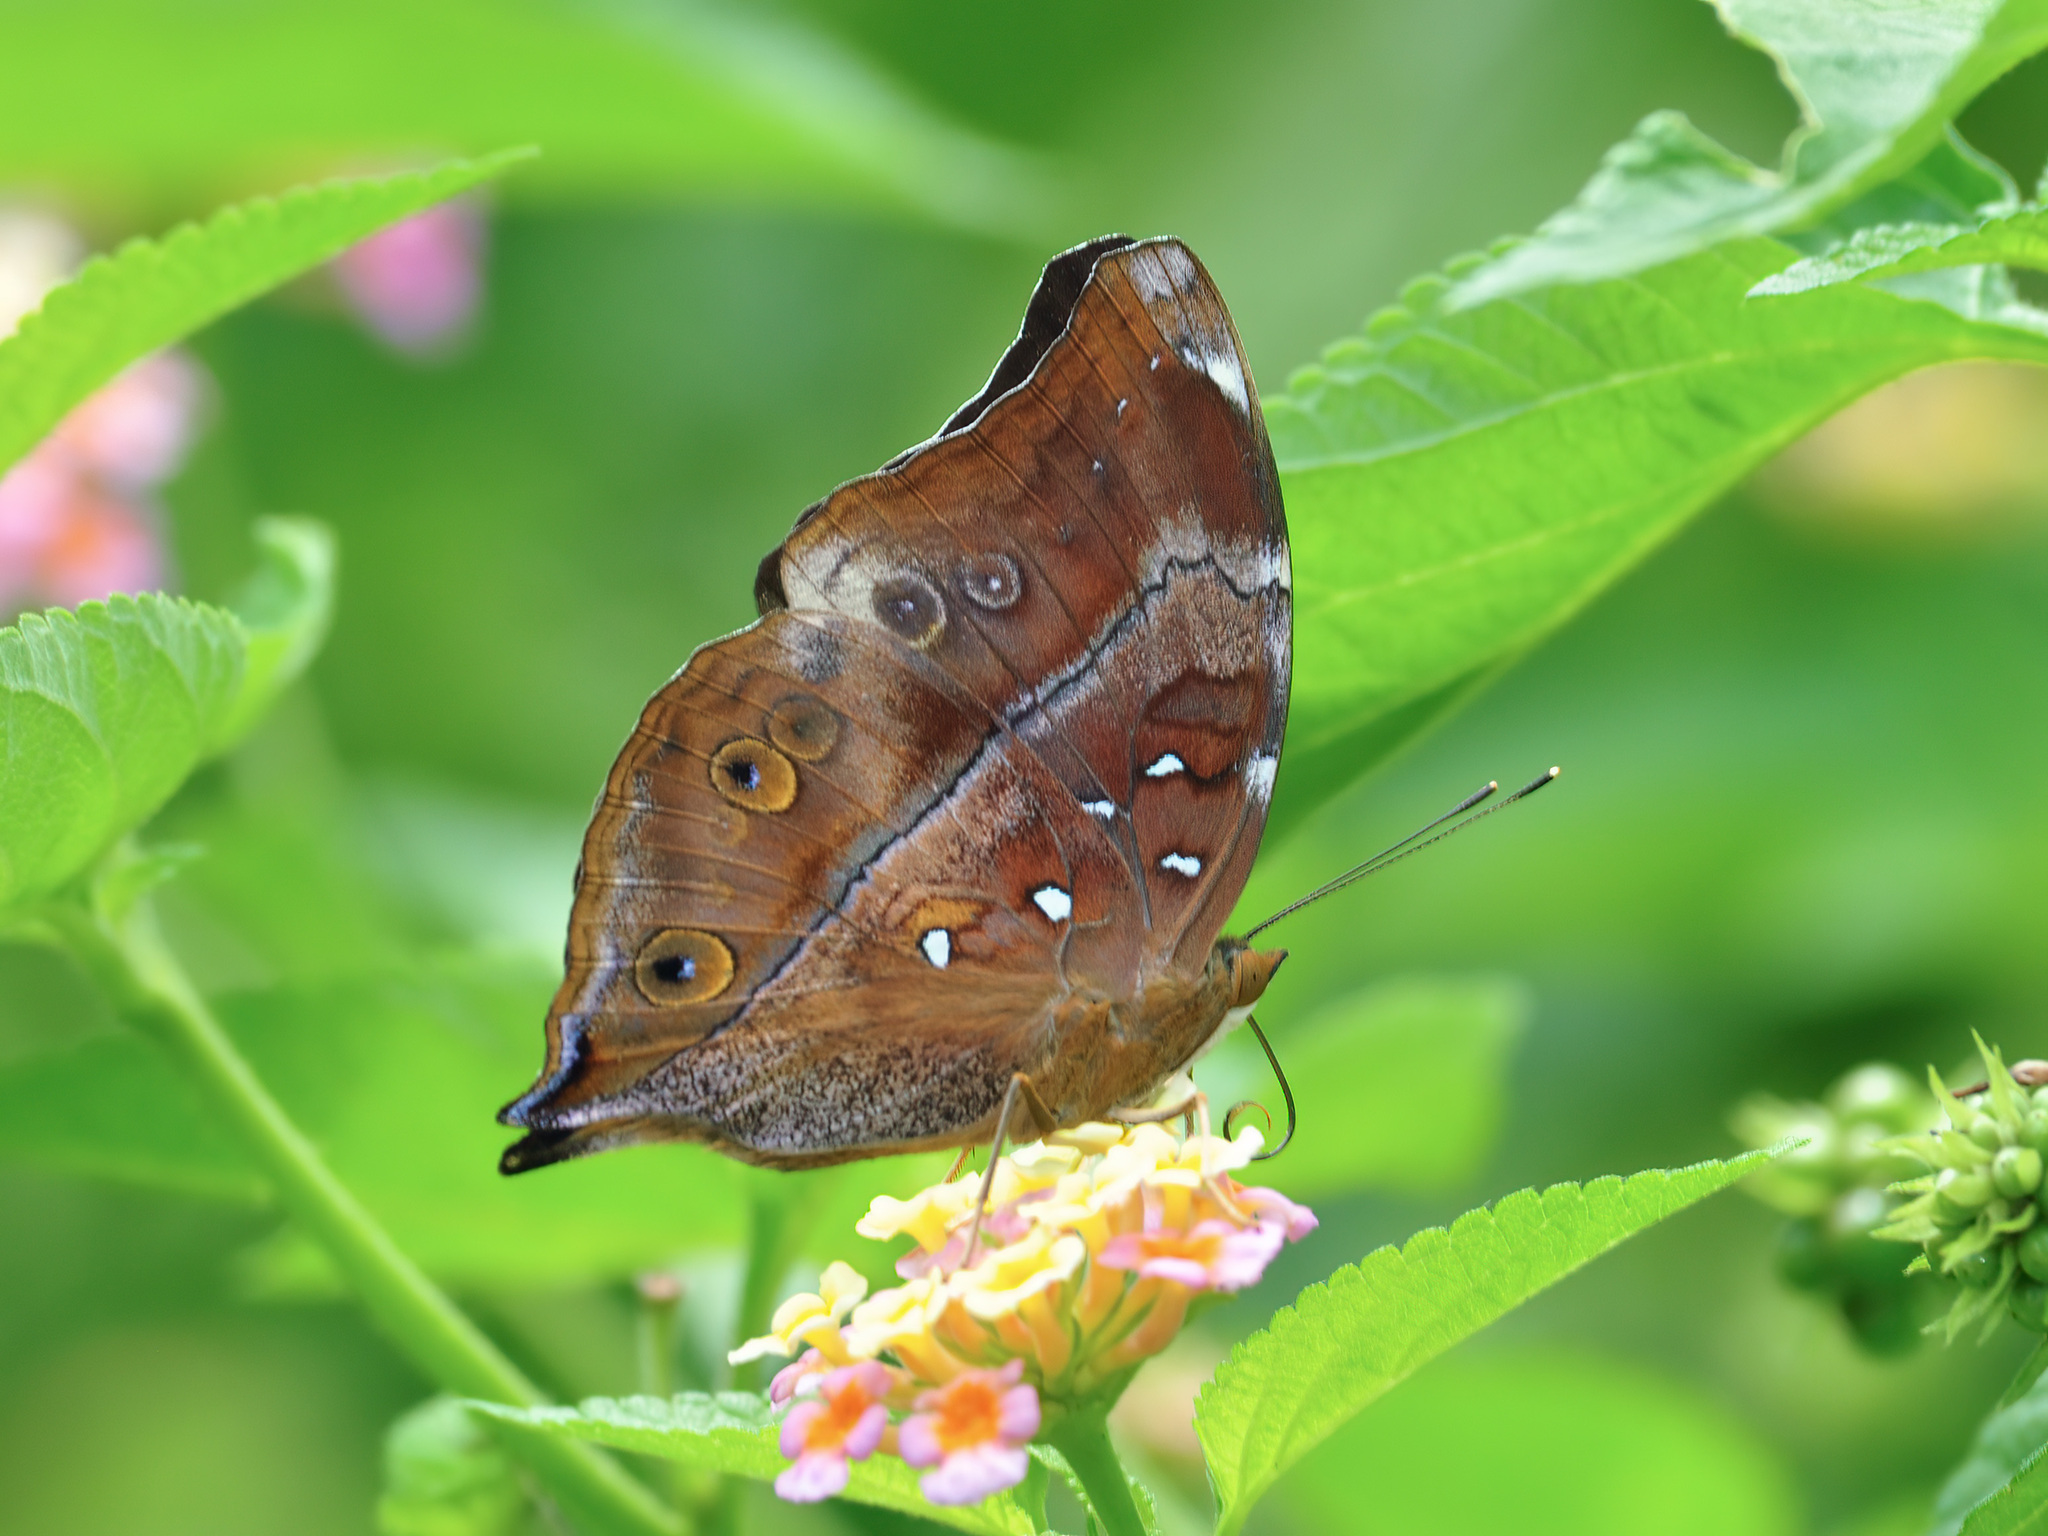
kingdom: Animalia
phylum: Arthropoda
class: Insecta
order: Lepidoptera
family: Nymphalidae
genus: Doleschallia
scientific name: Doleschallia bisaltide
